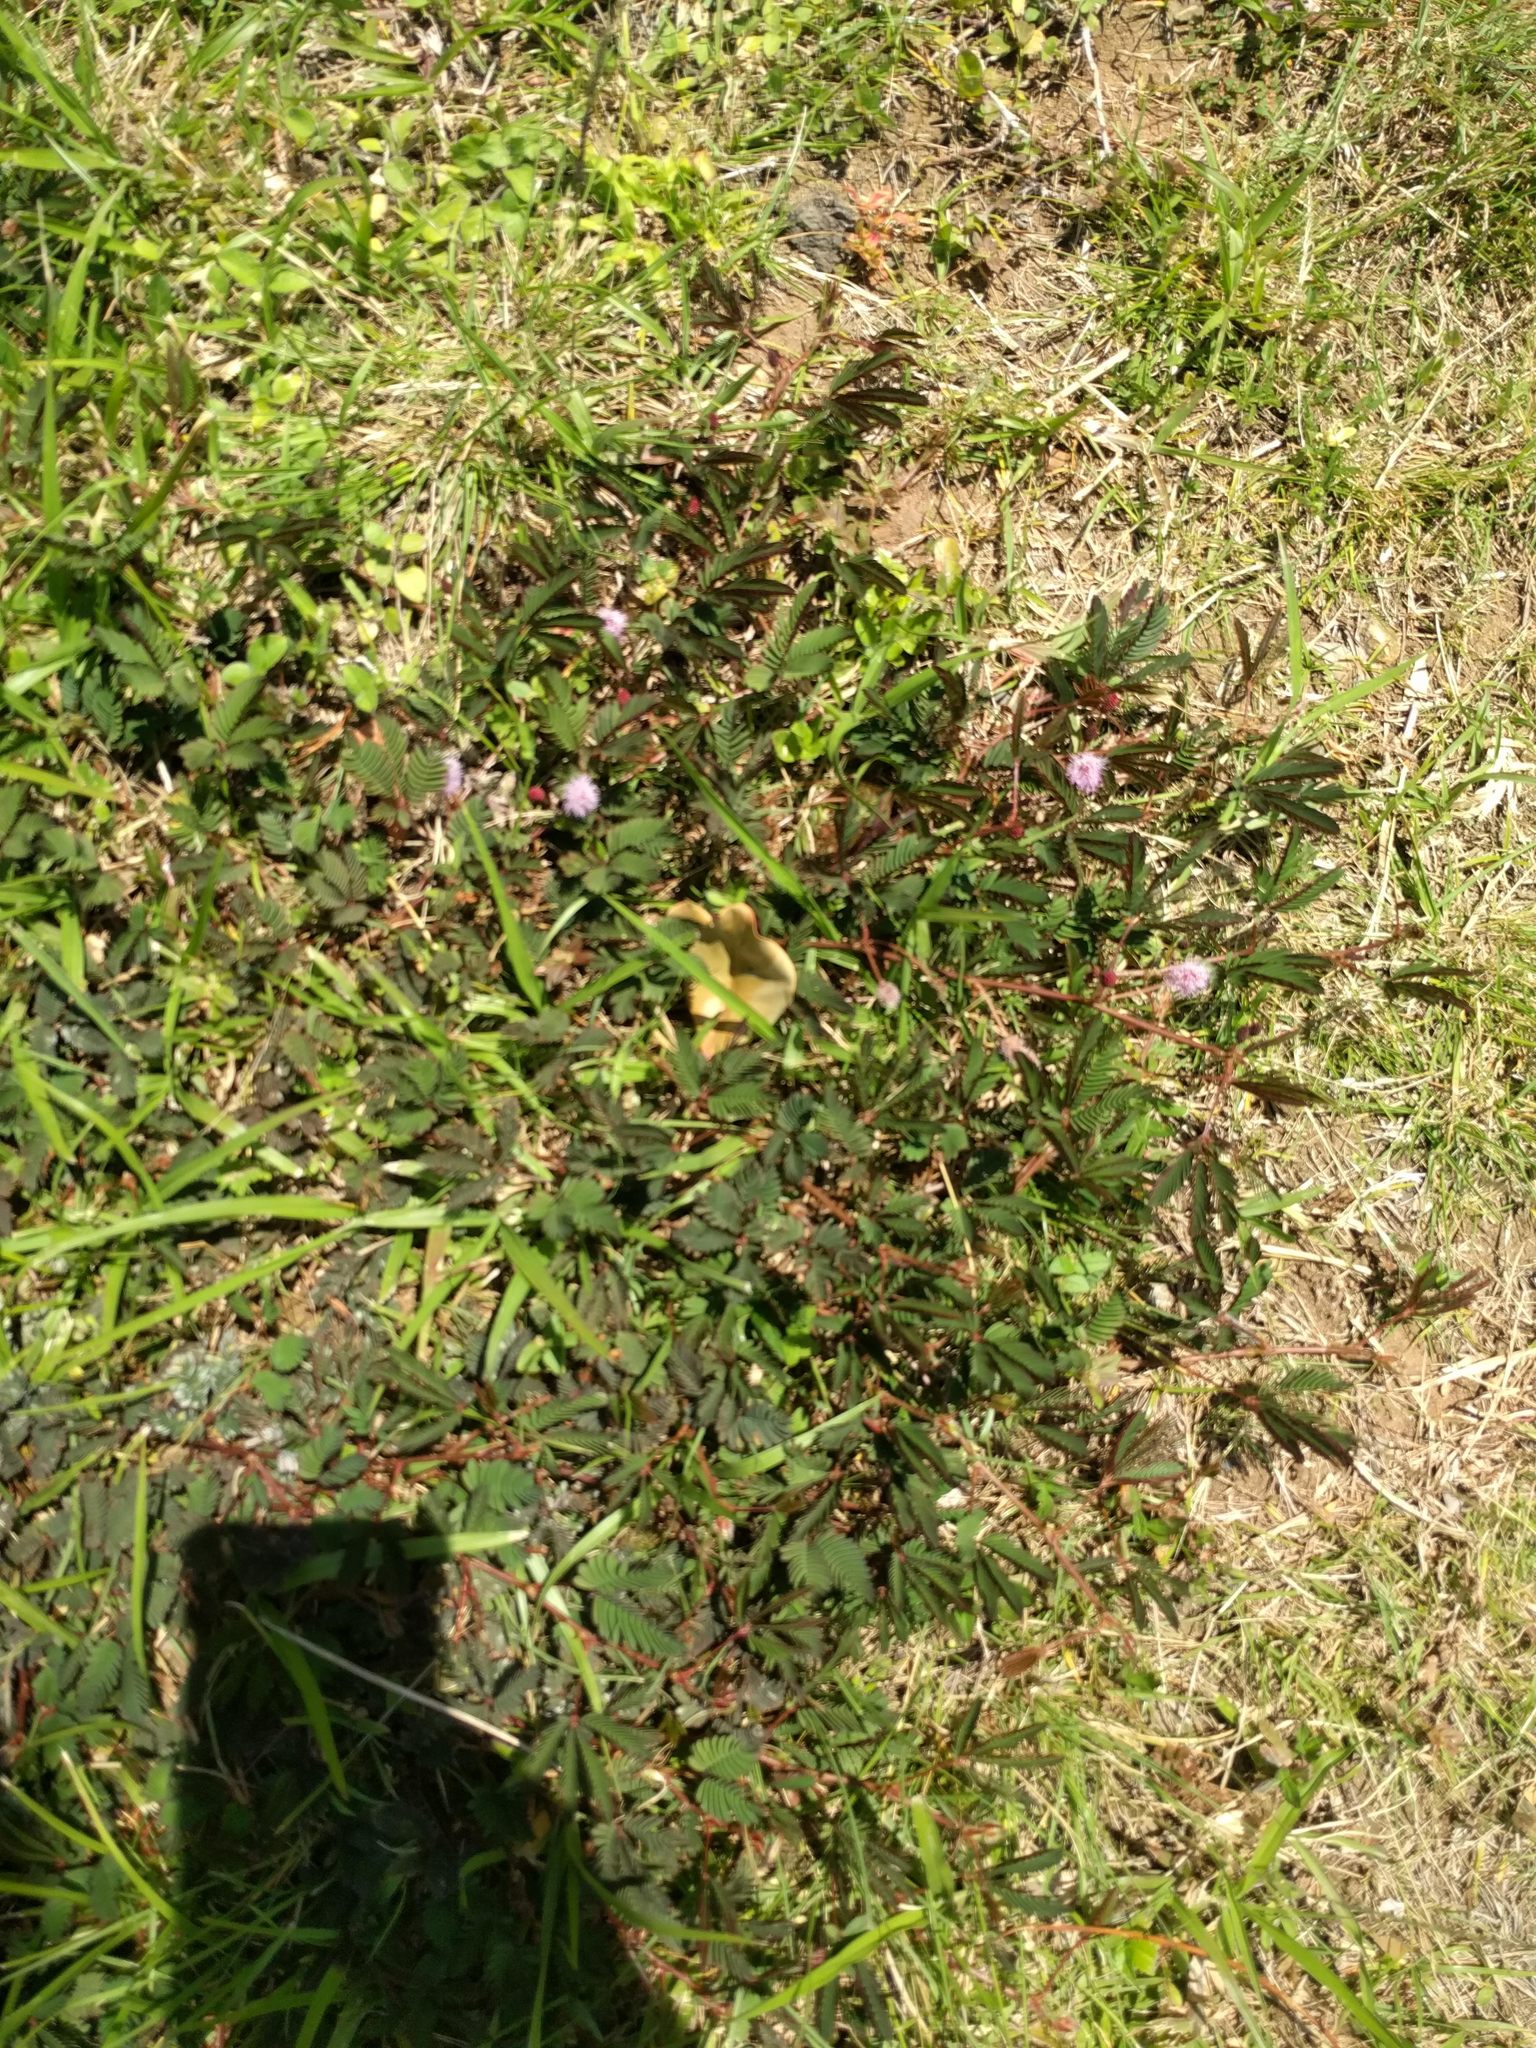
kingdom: Plantae
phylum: Tracheophyta
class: Magnoliopsida
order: Fabales
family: Fabaceae
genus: Mimosa
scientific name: Mimosa pudica
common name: Sensitive plant
